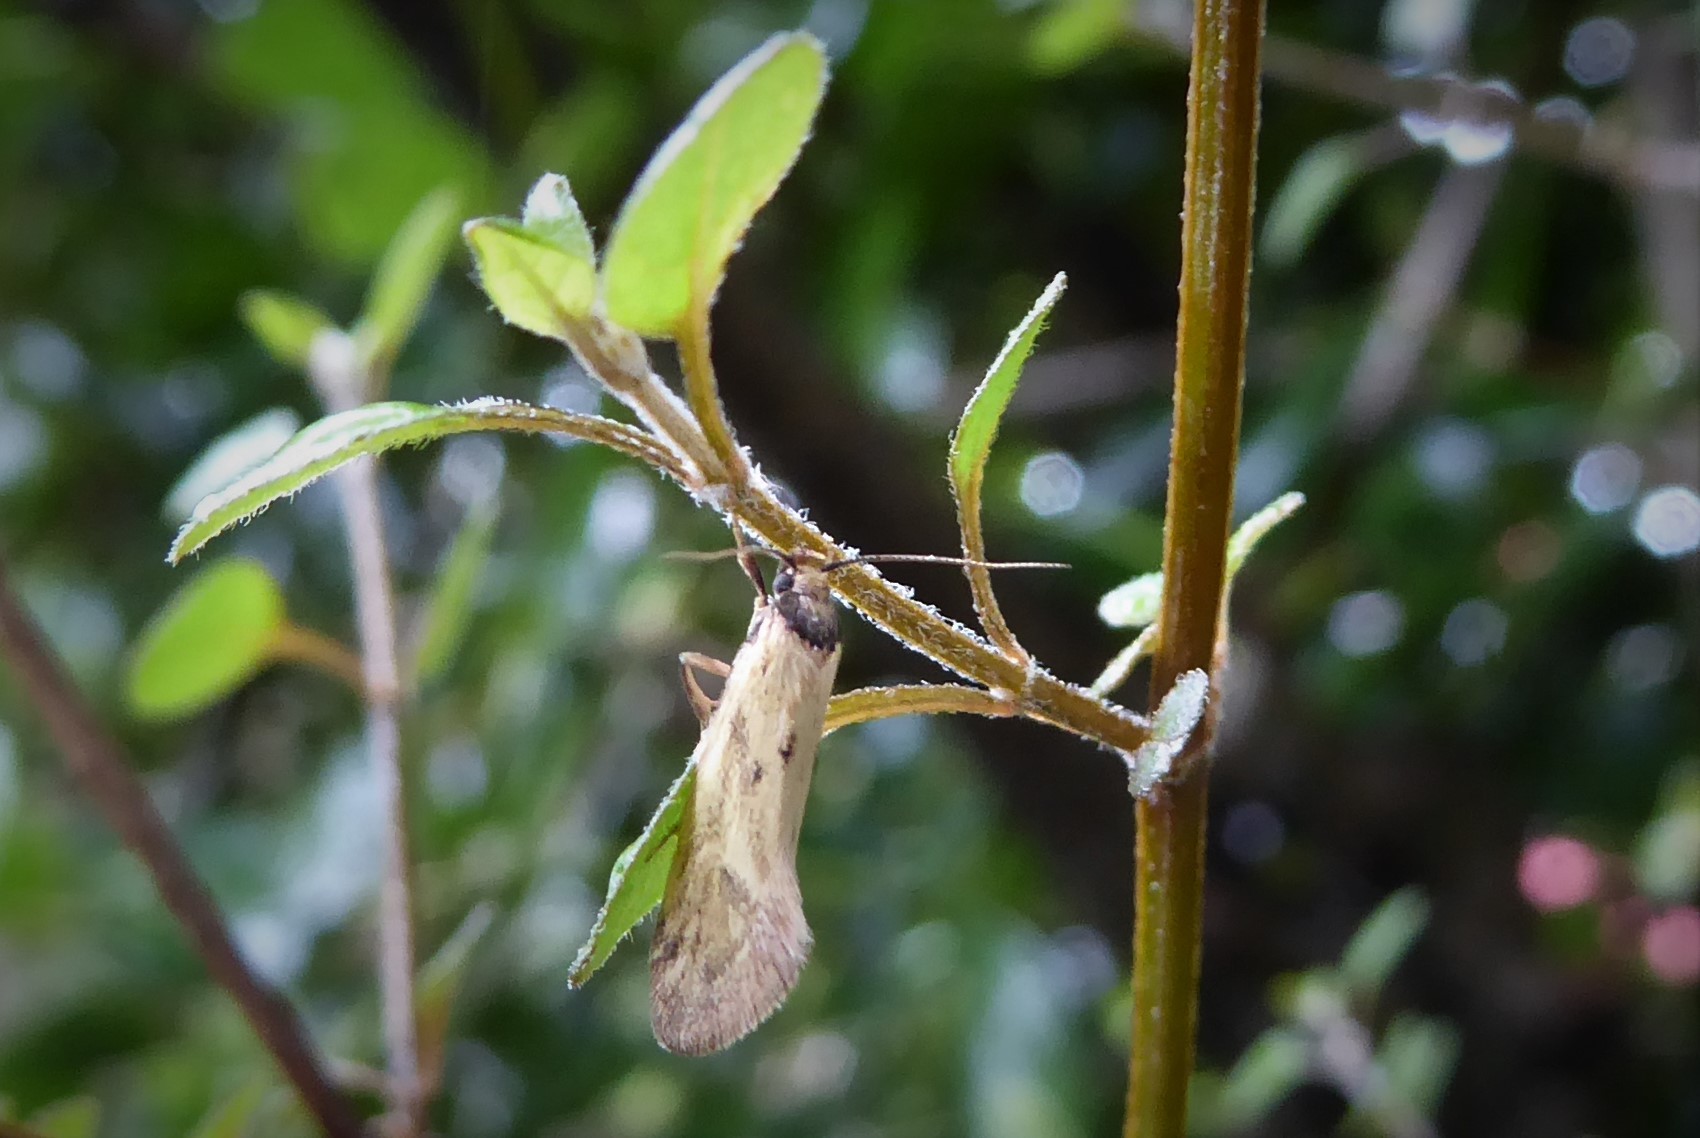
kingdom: Animalia
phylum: Arthropoda
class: Insecta
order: Lepidoptera
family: Oecophoridae
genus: Tingena
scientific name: Tingena melinella
